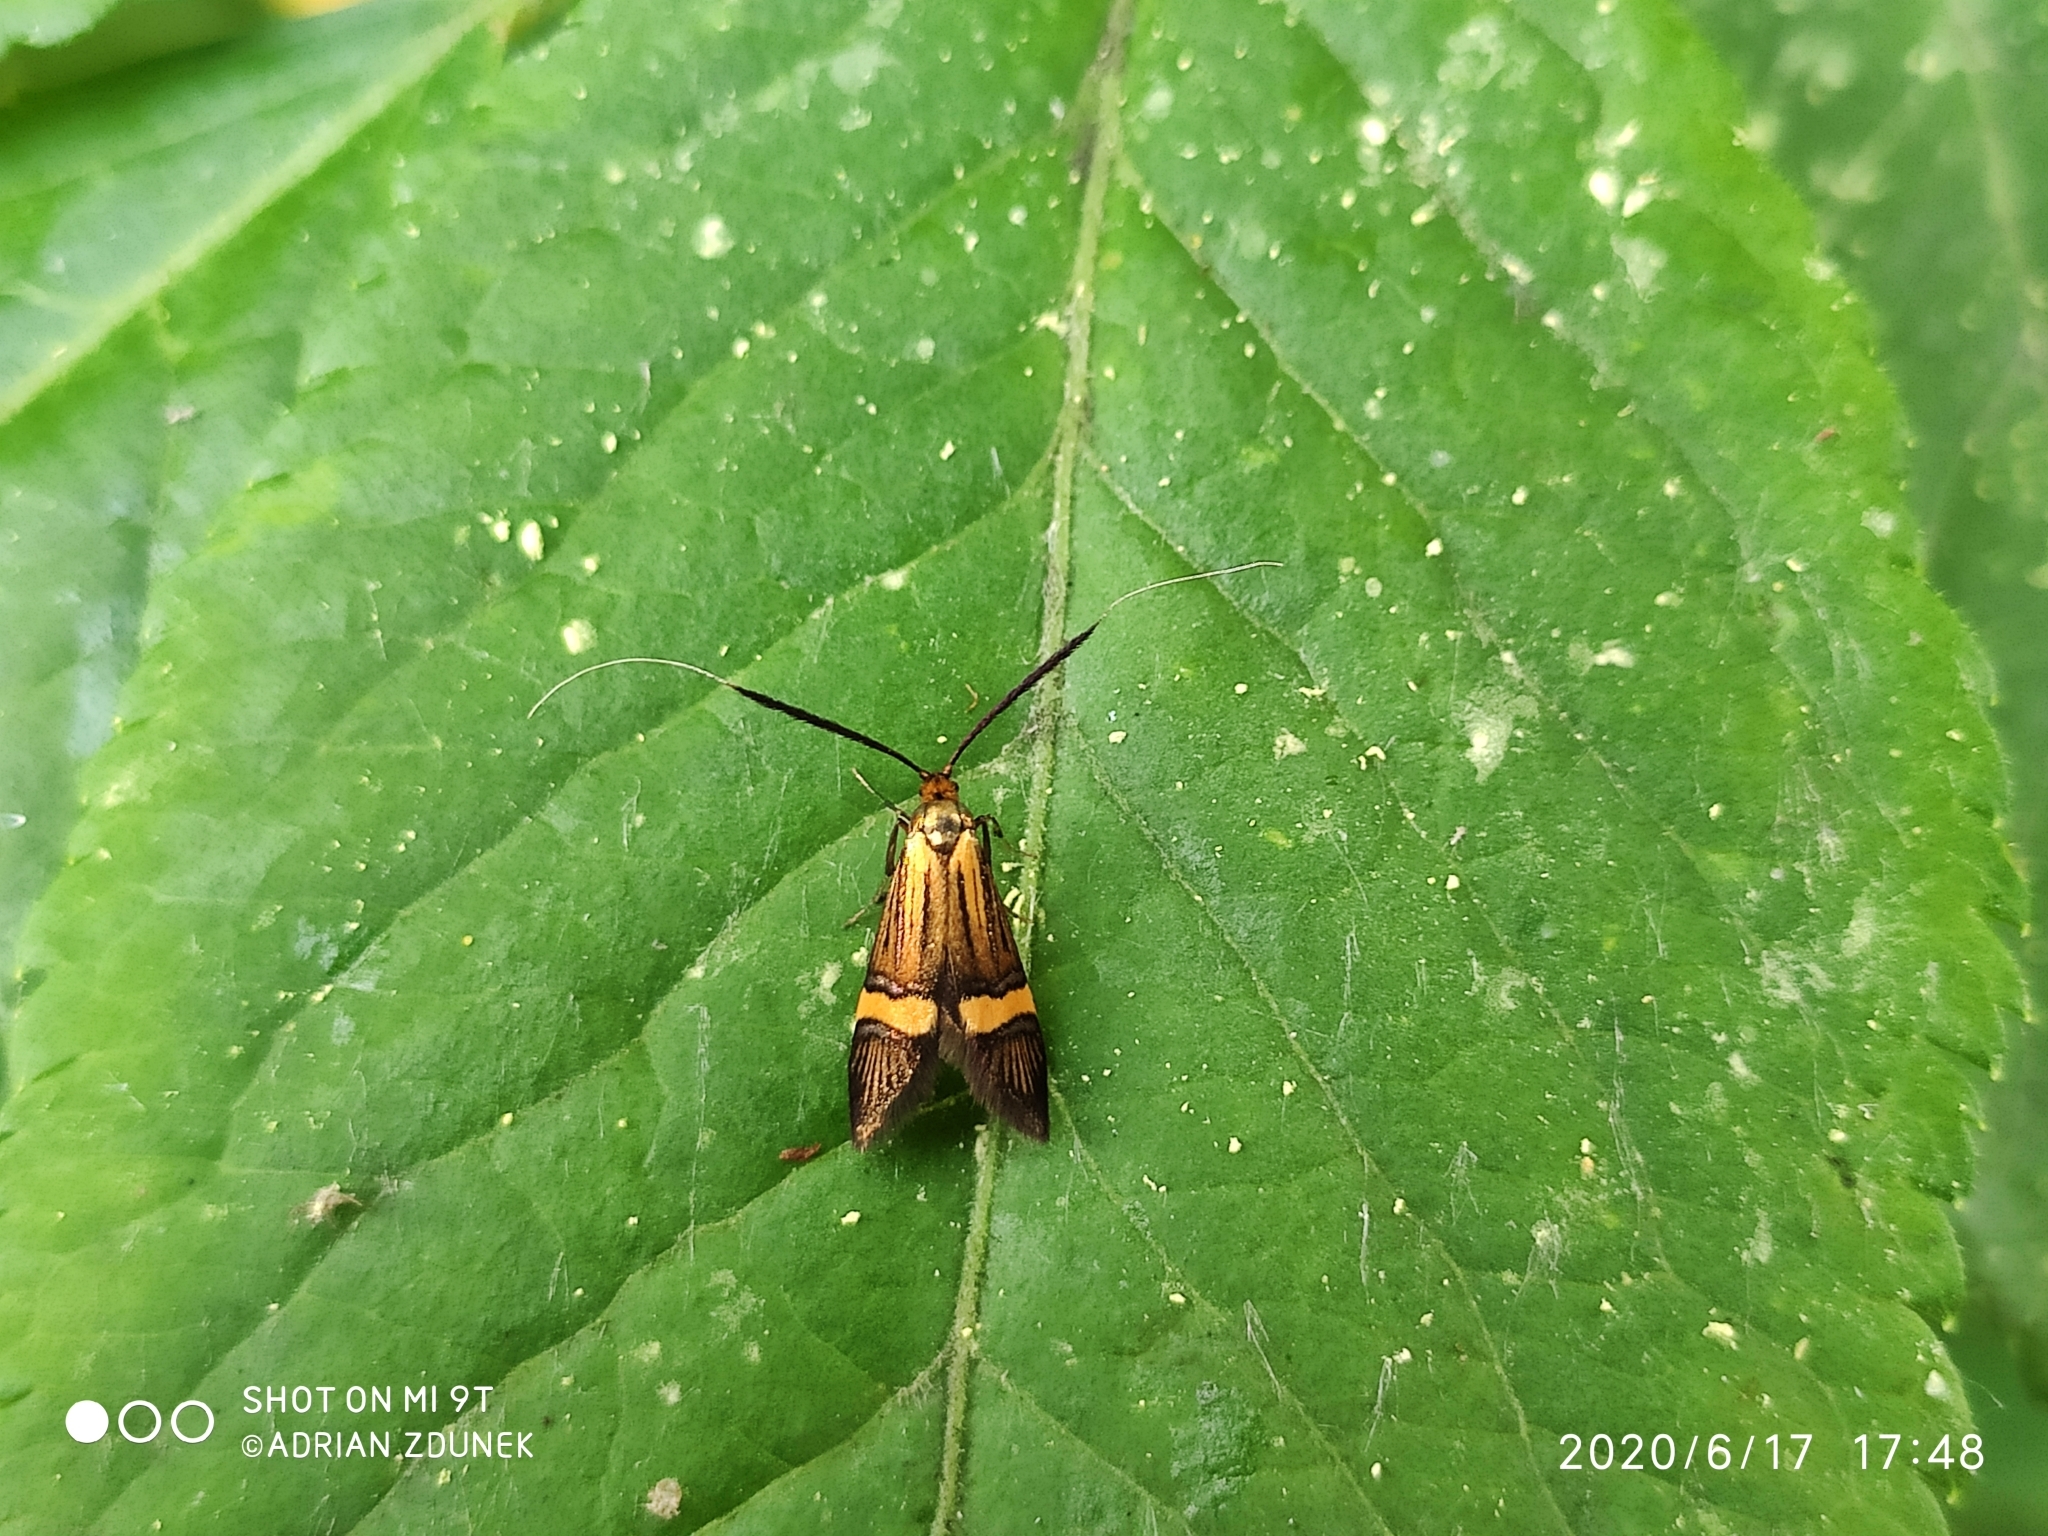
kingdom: Animalia
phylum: Arthropoda
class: Insecta
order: Lepidoptera
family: Adelidae
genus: Nemophora
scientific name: Nemophora degeerella
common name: Yellow-barred long-horn
